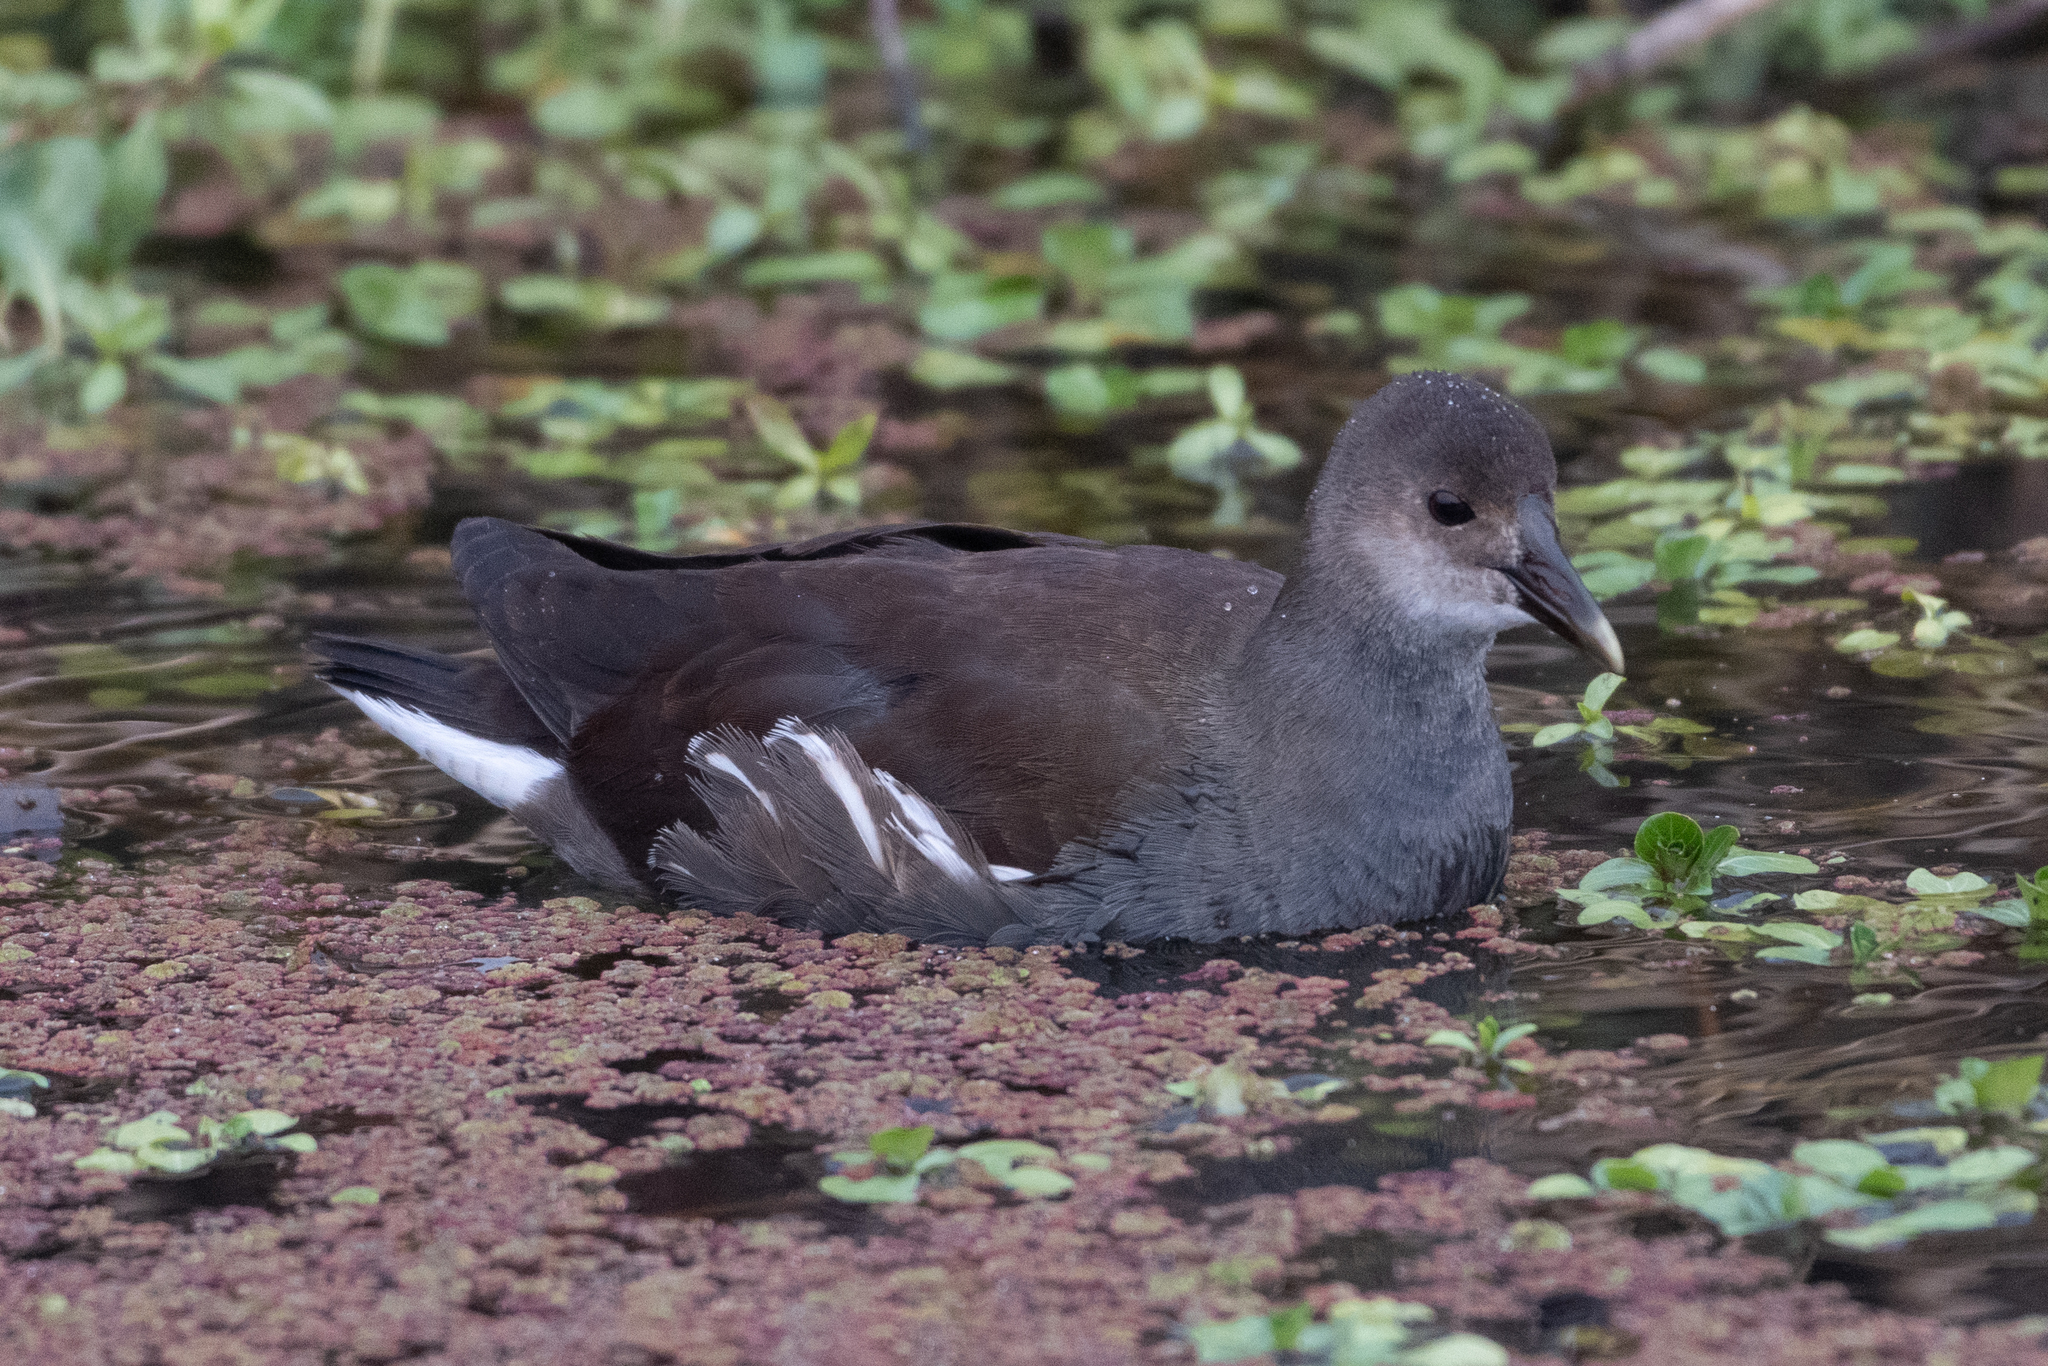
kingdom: Animalia
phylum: Chordata
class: Aves
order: Gruiformes
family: Rallidae
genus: Gallinula
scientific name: Gallinula chloropus
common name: Common moorhen
